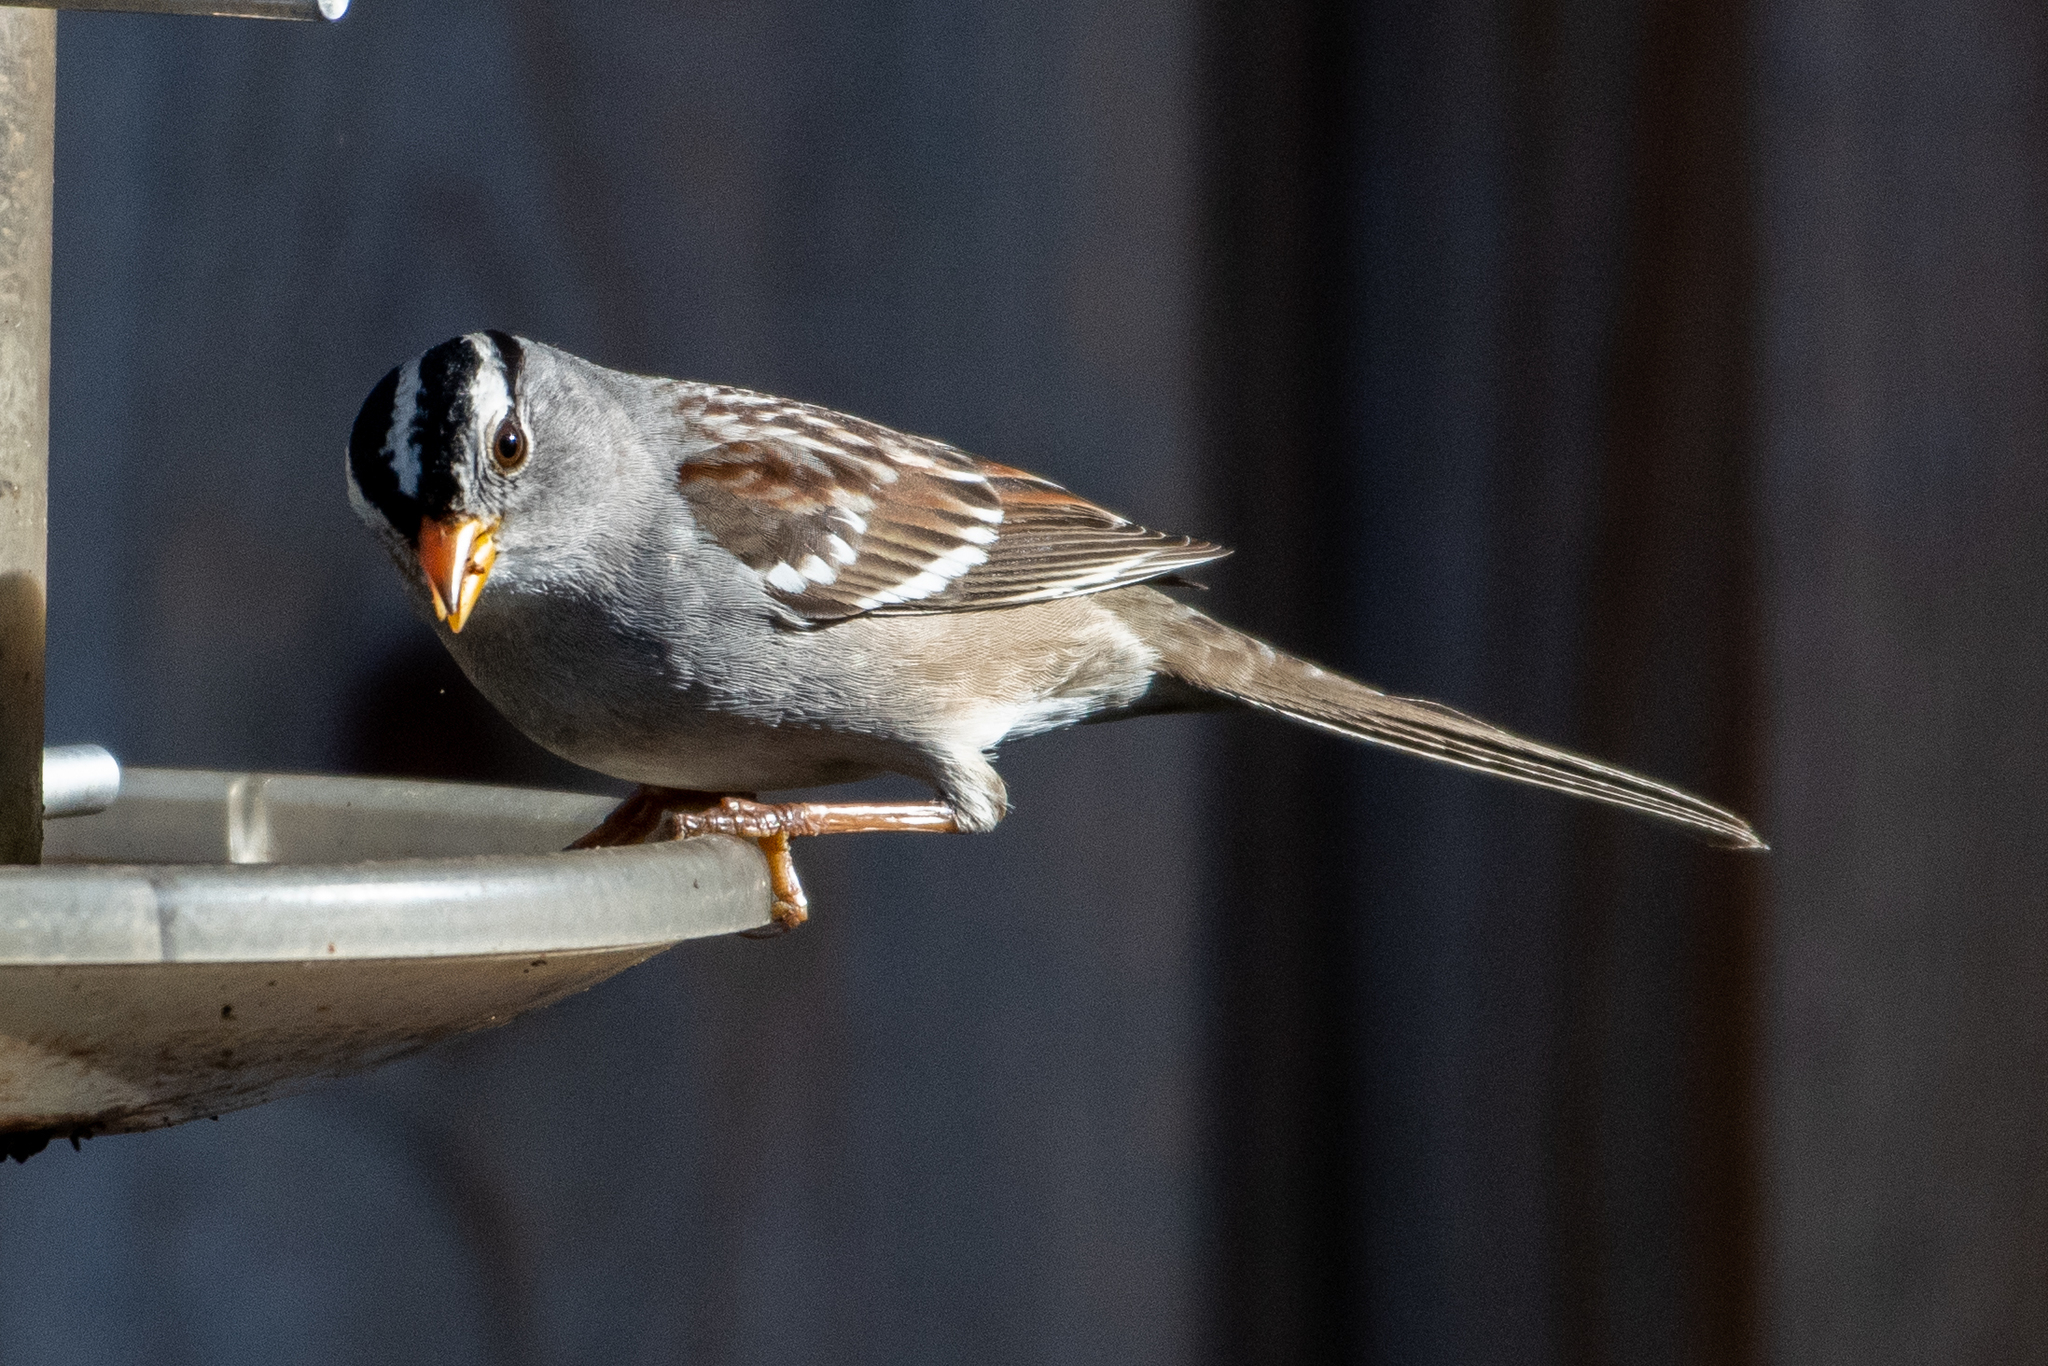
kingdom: Animalia
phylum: Chordata
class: Aves
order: Passeriformes
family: Passerellidae
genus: Zonotrichia
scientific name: Zonotrichia leucophrys
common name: White-crowned sparrow
